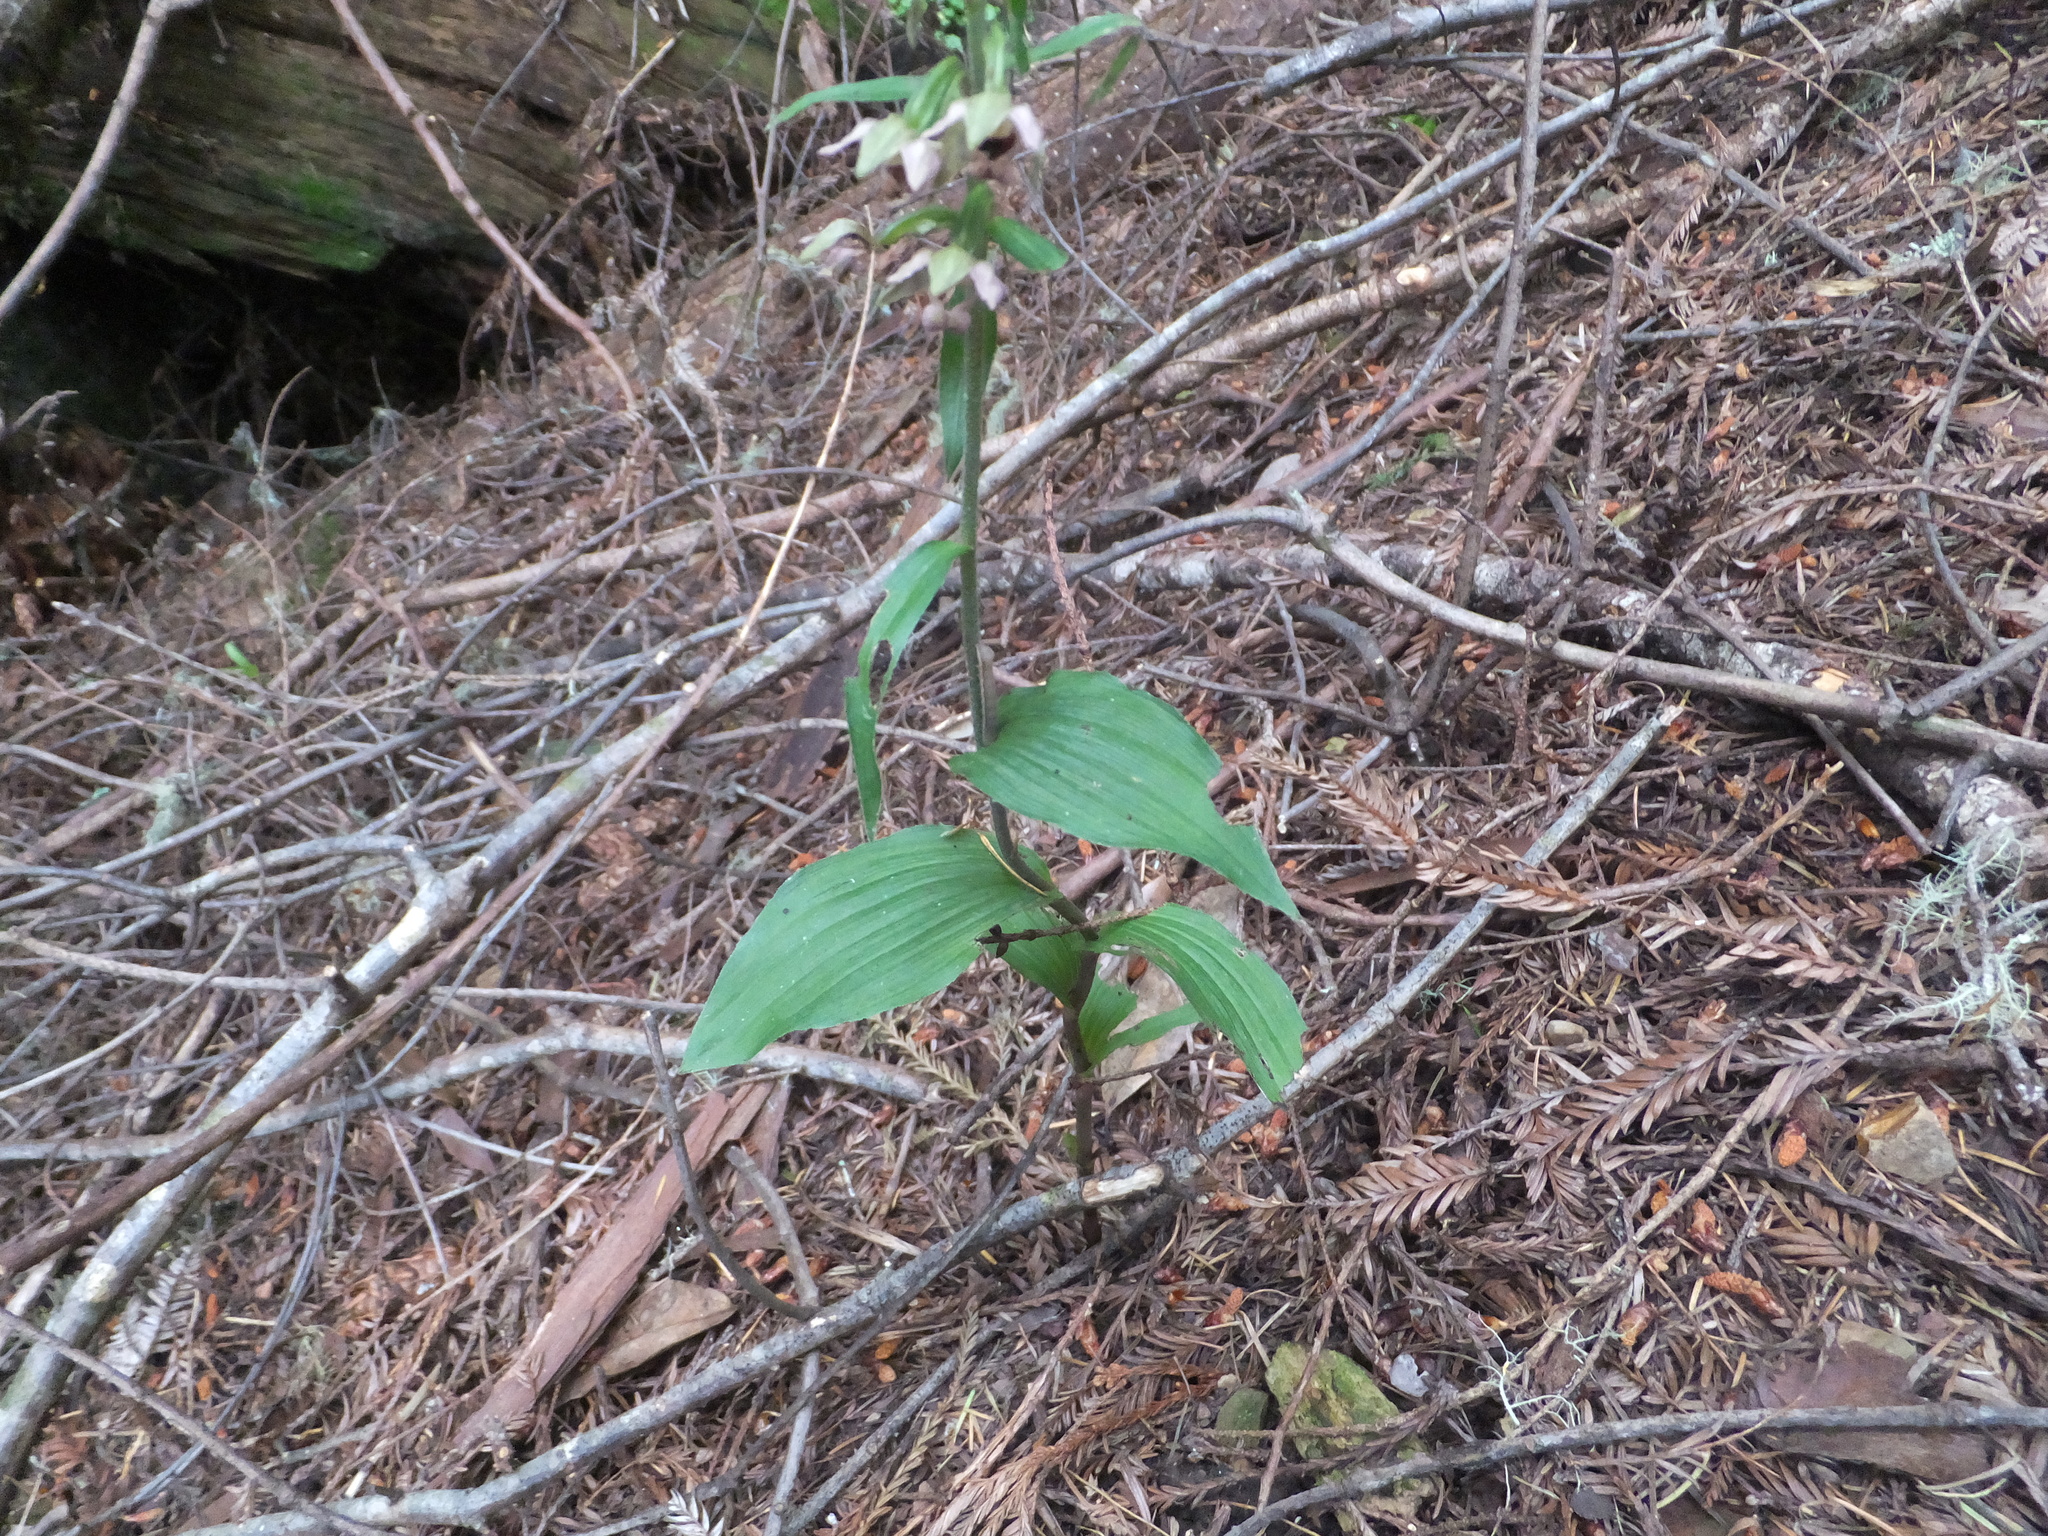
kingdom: Plantae
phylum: Tracheophyta
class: Liliopsida
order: Asparagales
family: Orchidaceae
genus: Epipactis
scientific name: Epipactis helleborine
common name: Broad-leaved helleborine
